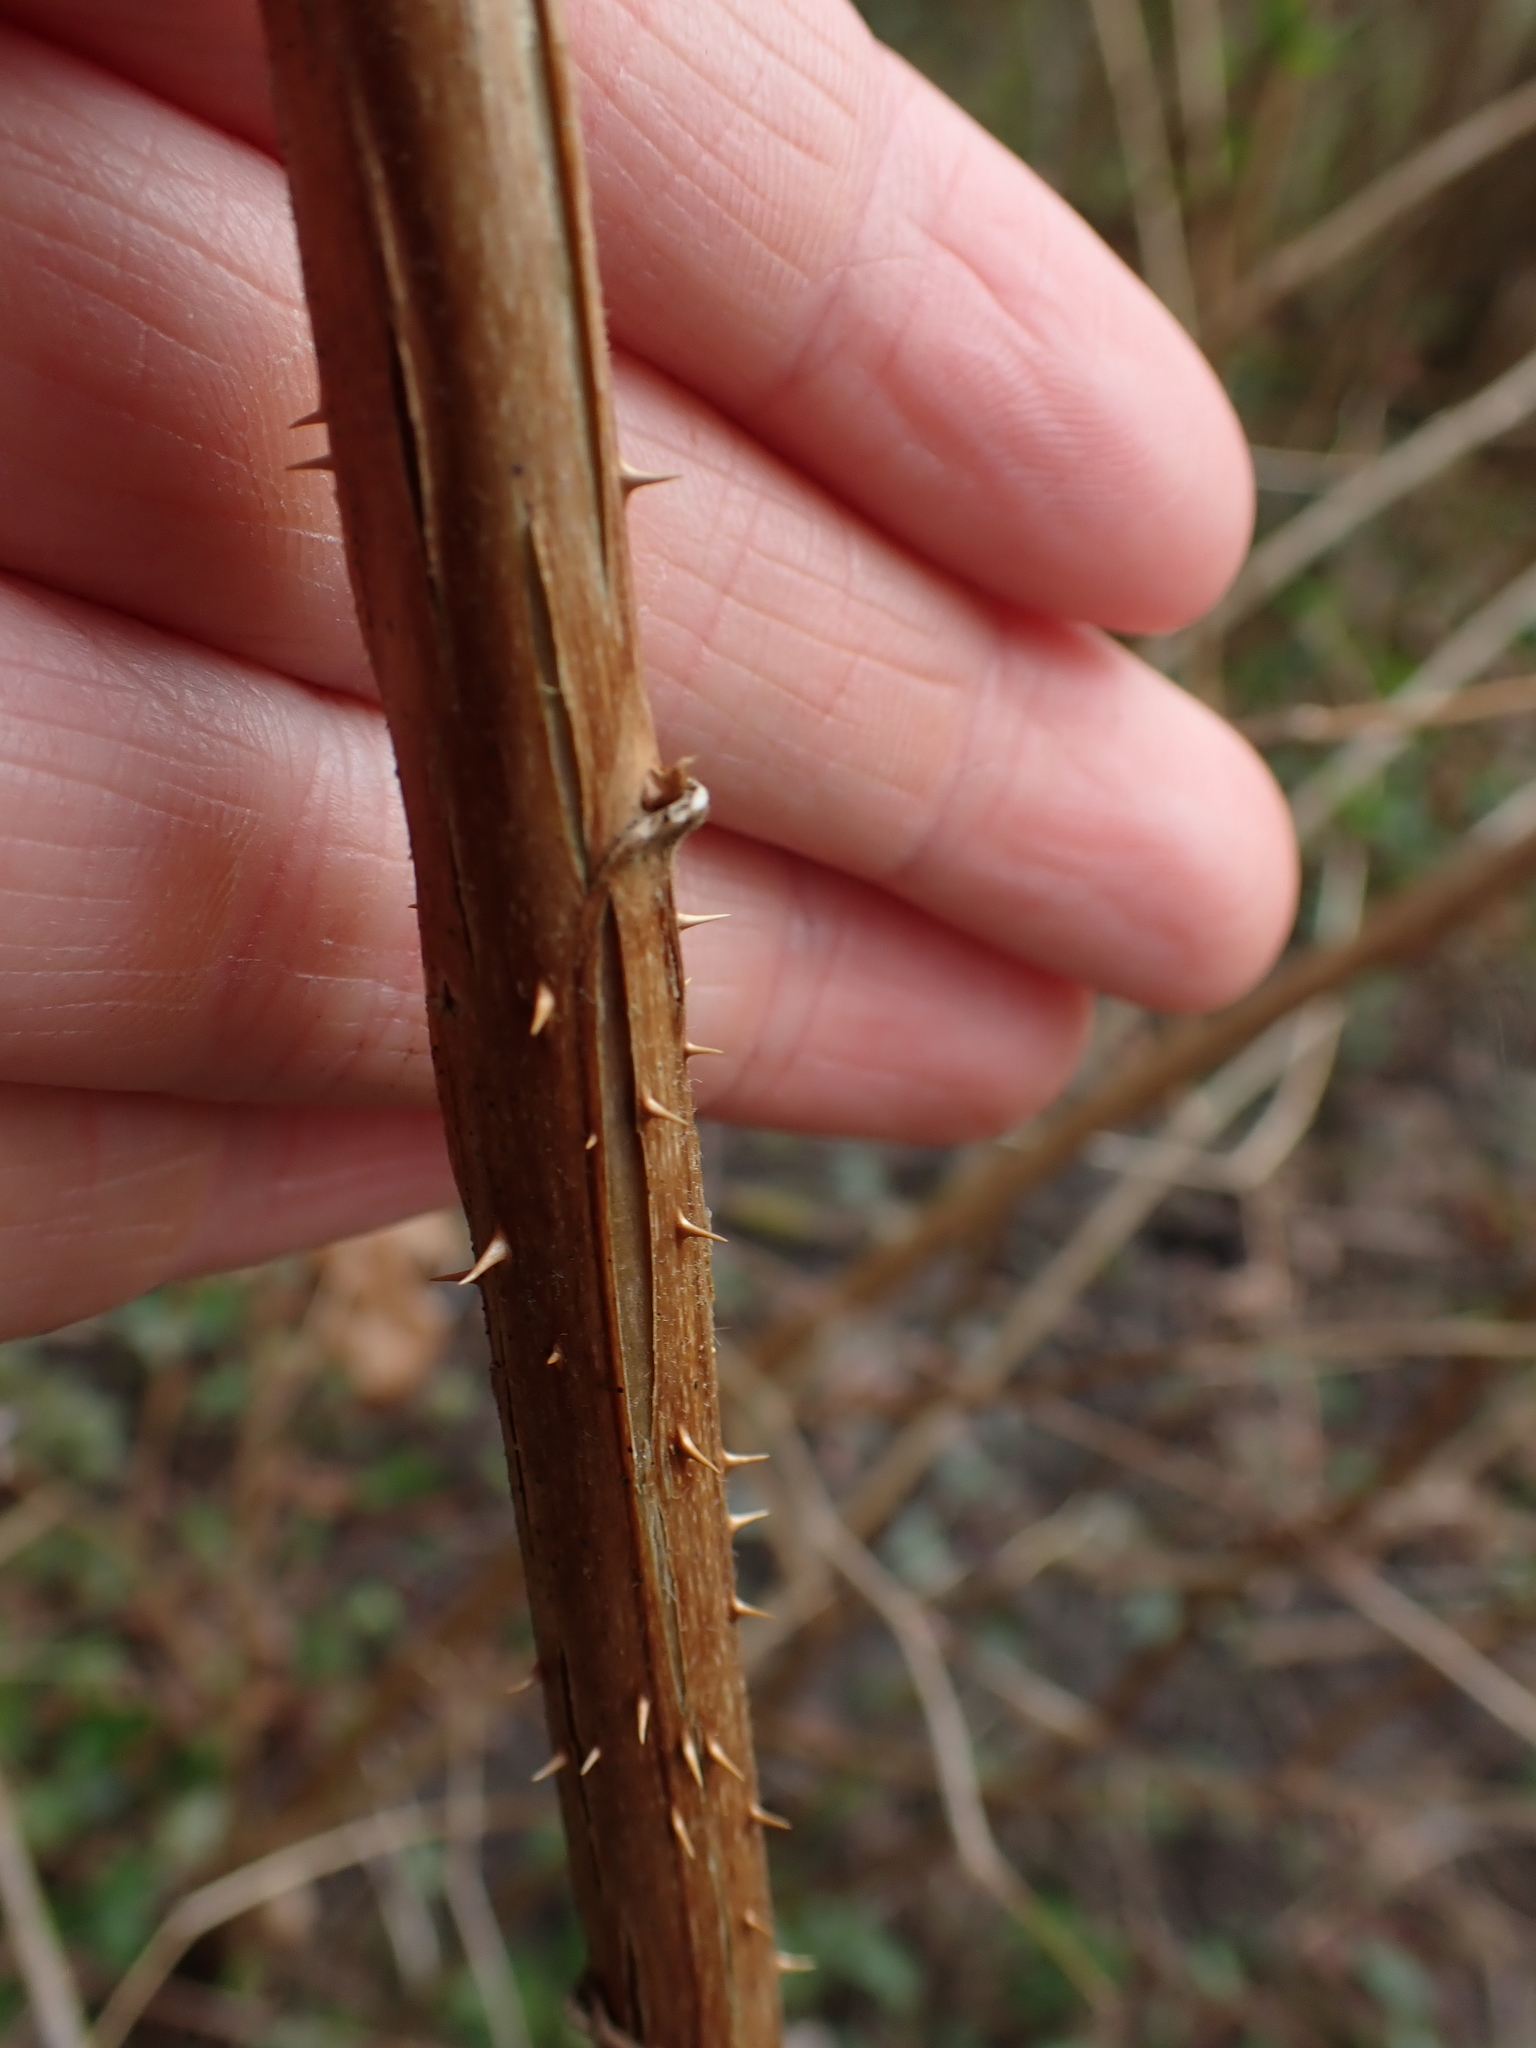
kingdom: Plantae
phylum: Tracheophyta
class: Magnoliopsida
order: Rosales
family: Rosaceae
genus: Rubus
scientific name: Rubus spectabilis
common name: Salmonberry
